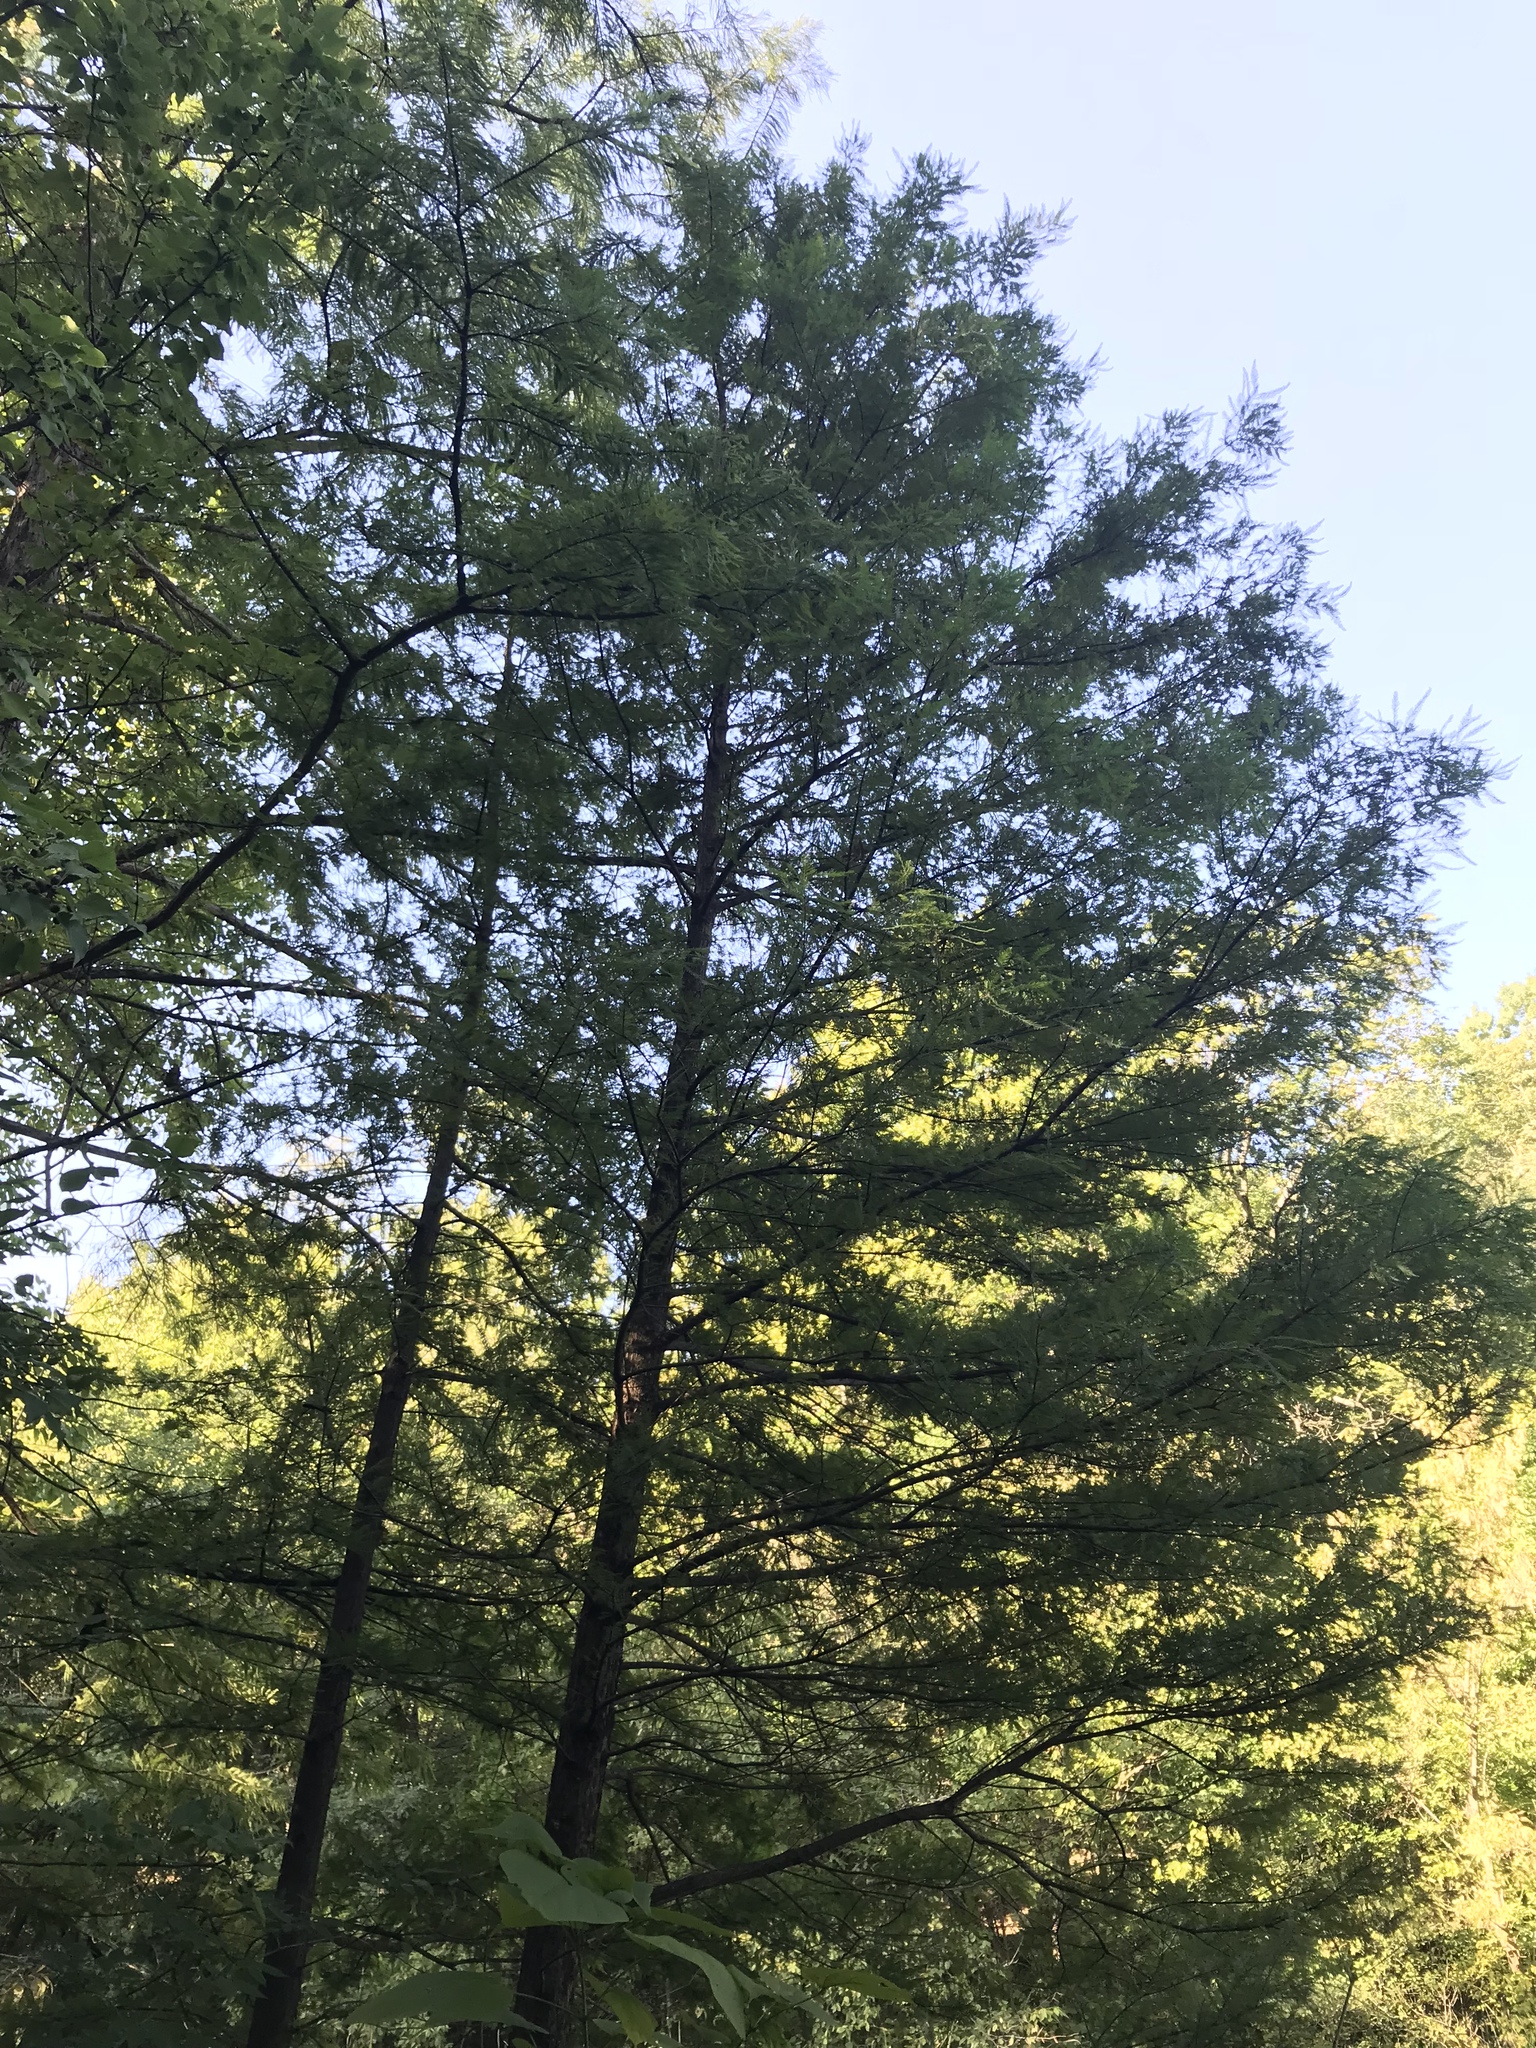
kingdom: Plantae
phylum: Tracheophyta
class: Pinopsida
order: Pinales
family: Pinaceae
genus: Tsuga
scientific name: Tsuga canadensis
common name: Eastern hemlock
